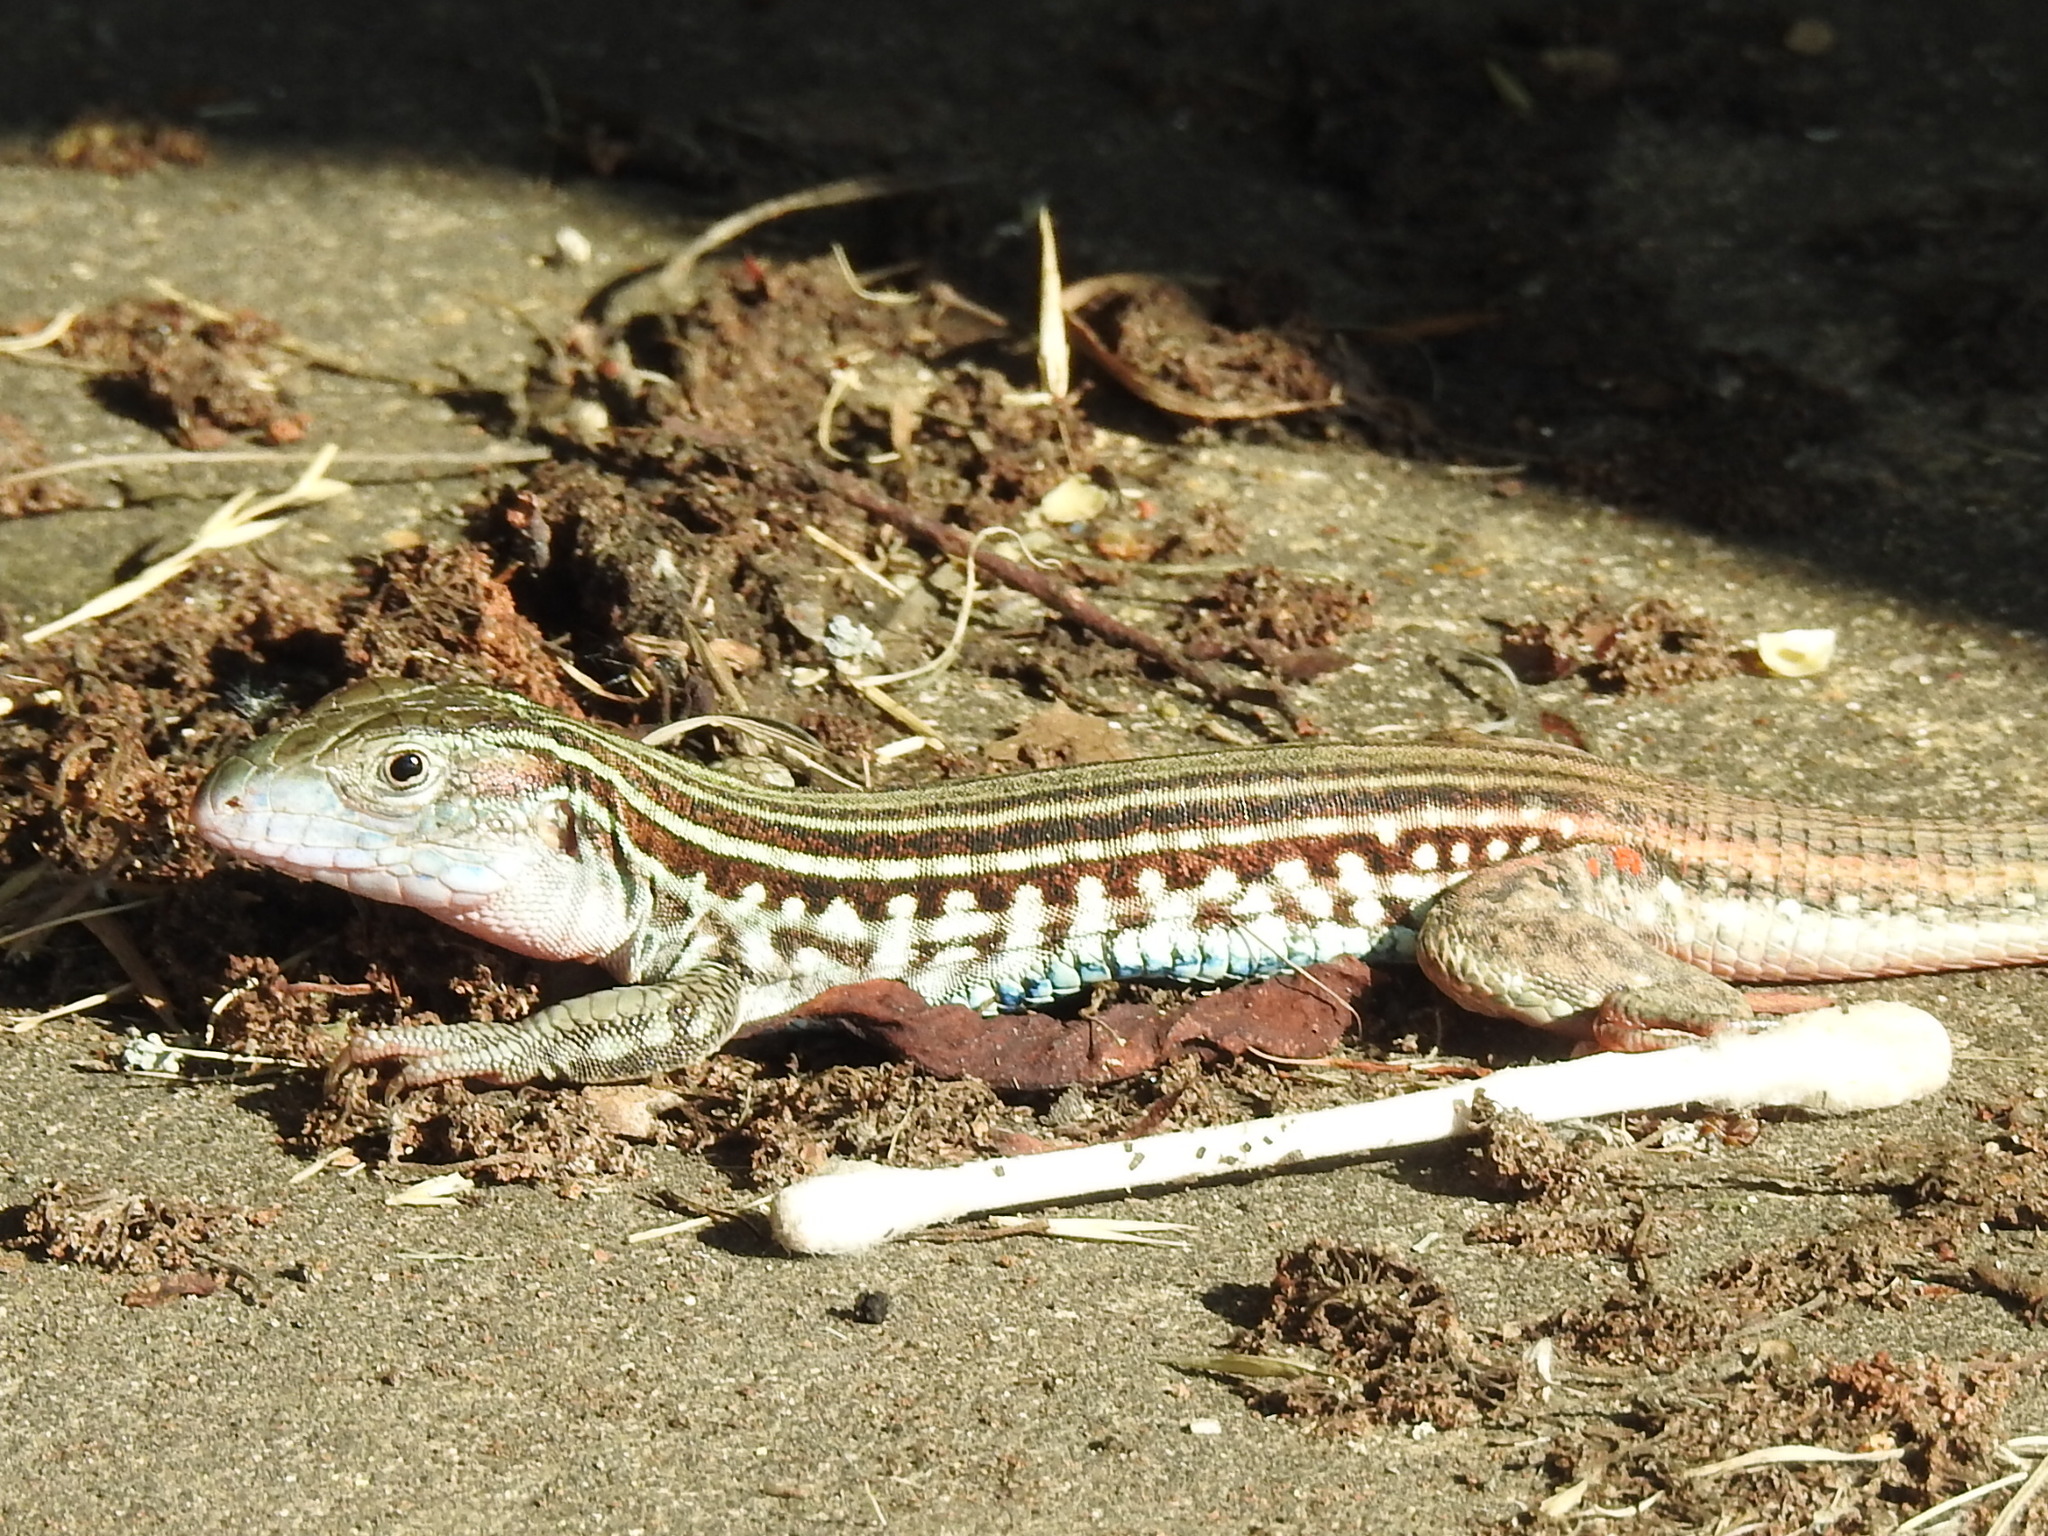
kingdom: Animalia
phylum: Chordata
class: Squamata
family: Teiidae
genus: Aspidoscelis
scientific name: Aspidoscelis gularis
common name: Eastern spotted whiptail
